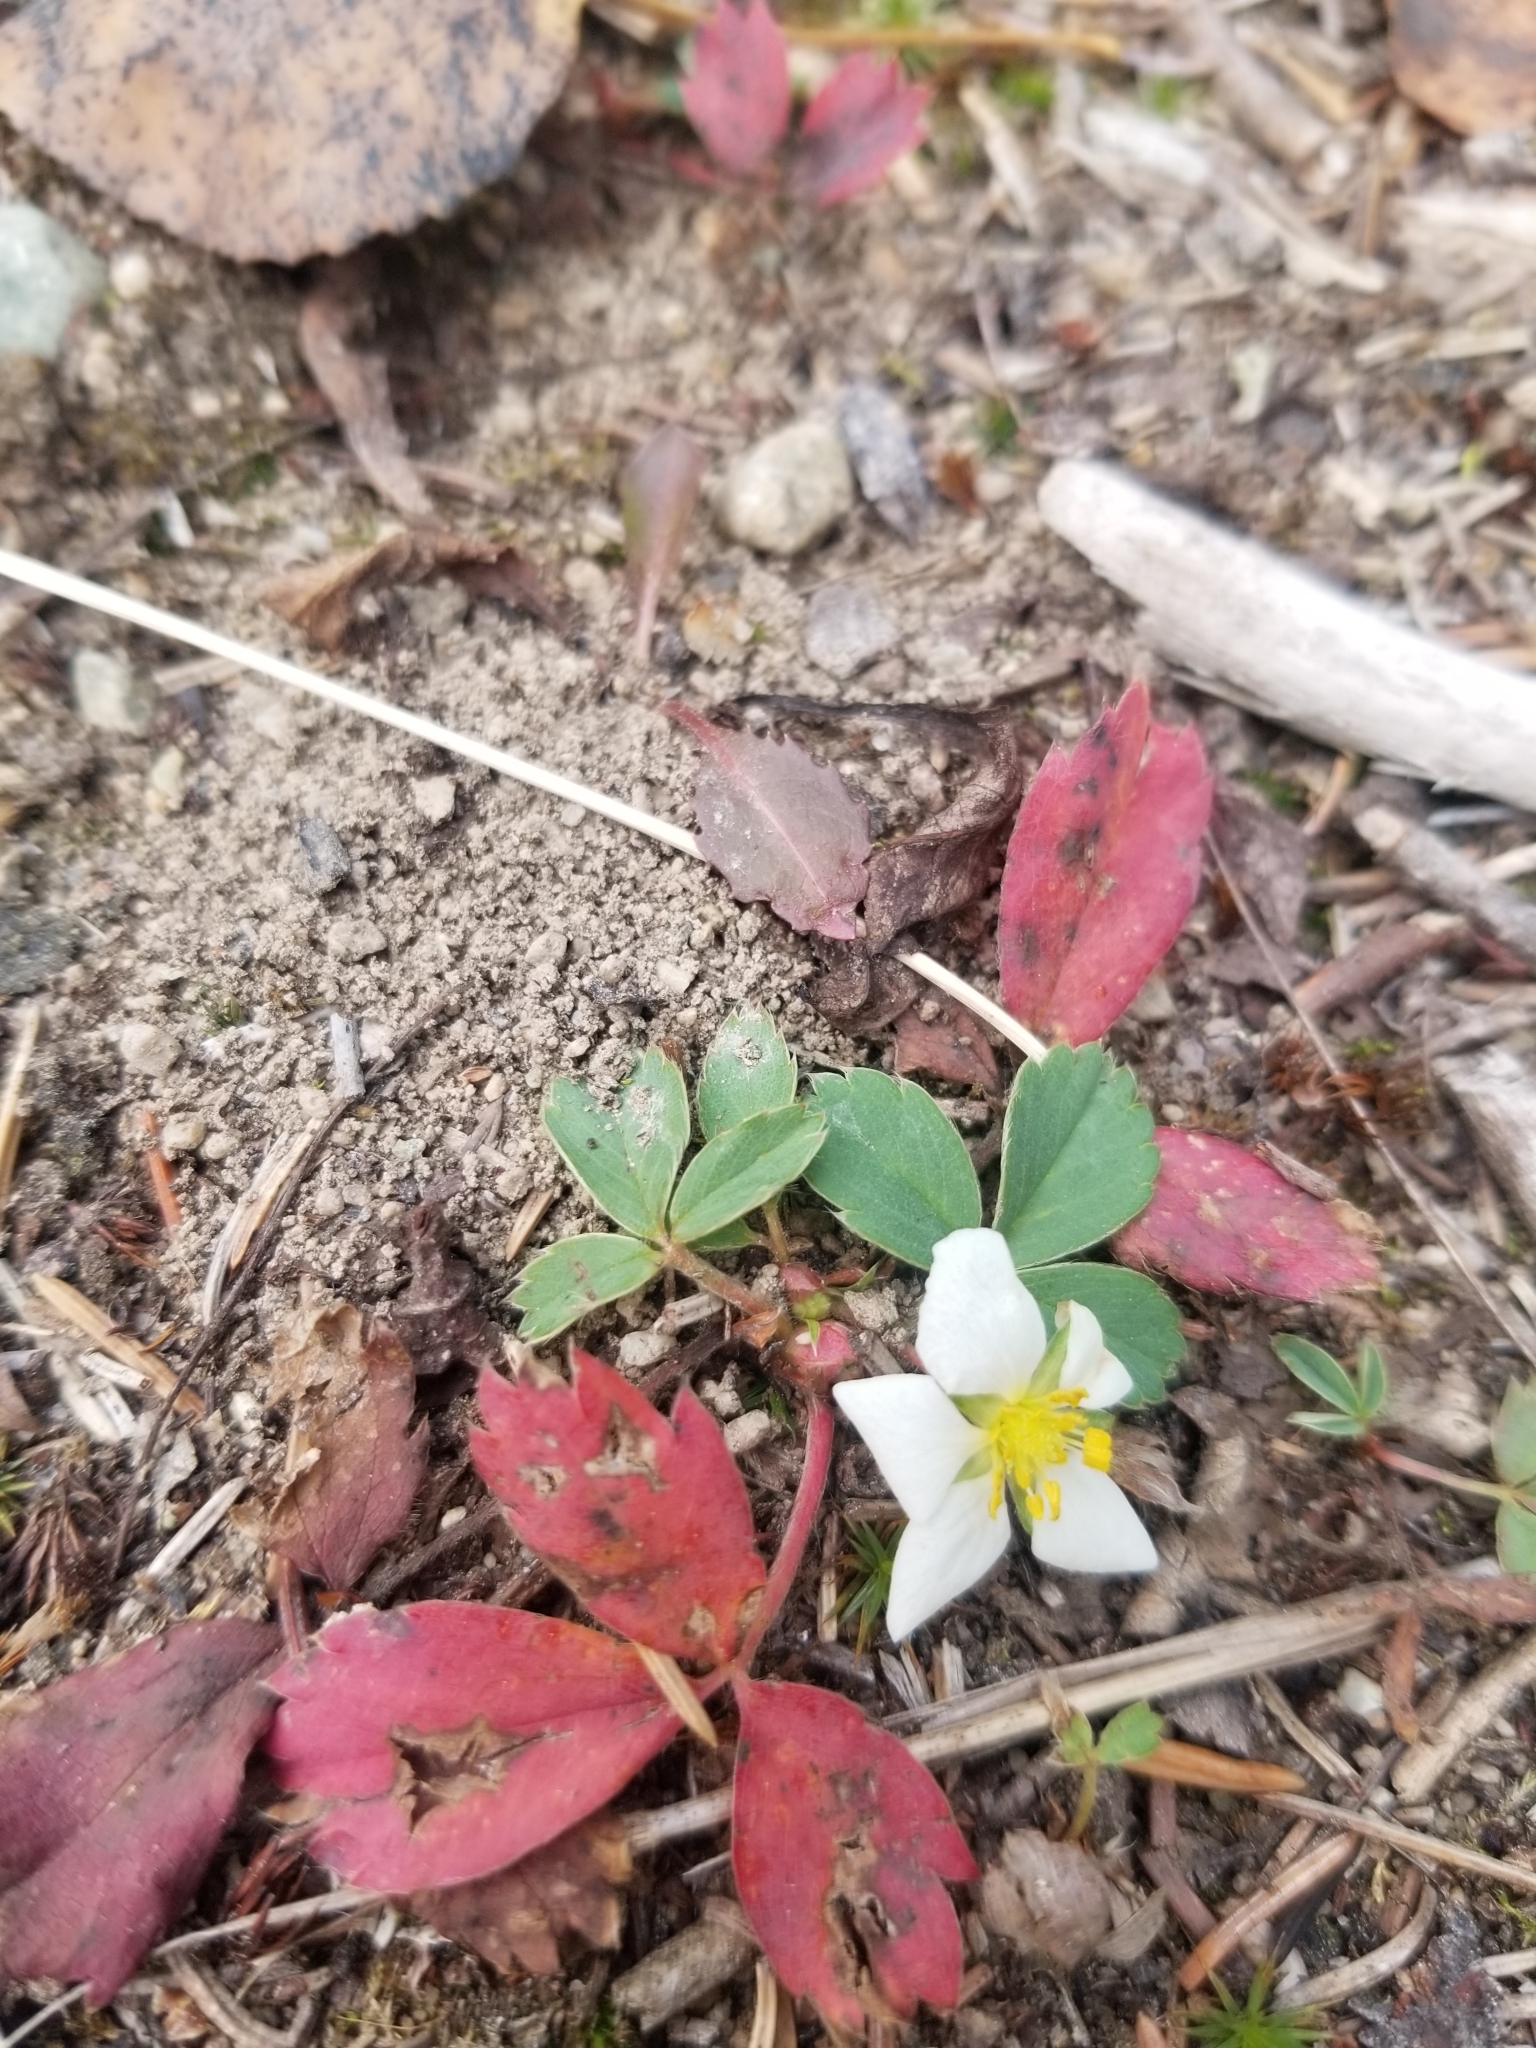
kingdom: Plantae
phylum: Tracheophyta
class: Magnoliopsida
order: Rosales
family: Rosaceae
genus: Fragaria
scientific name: Fragaria virginiana
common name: Thickleaved wild strawberry
